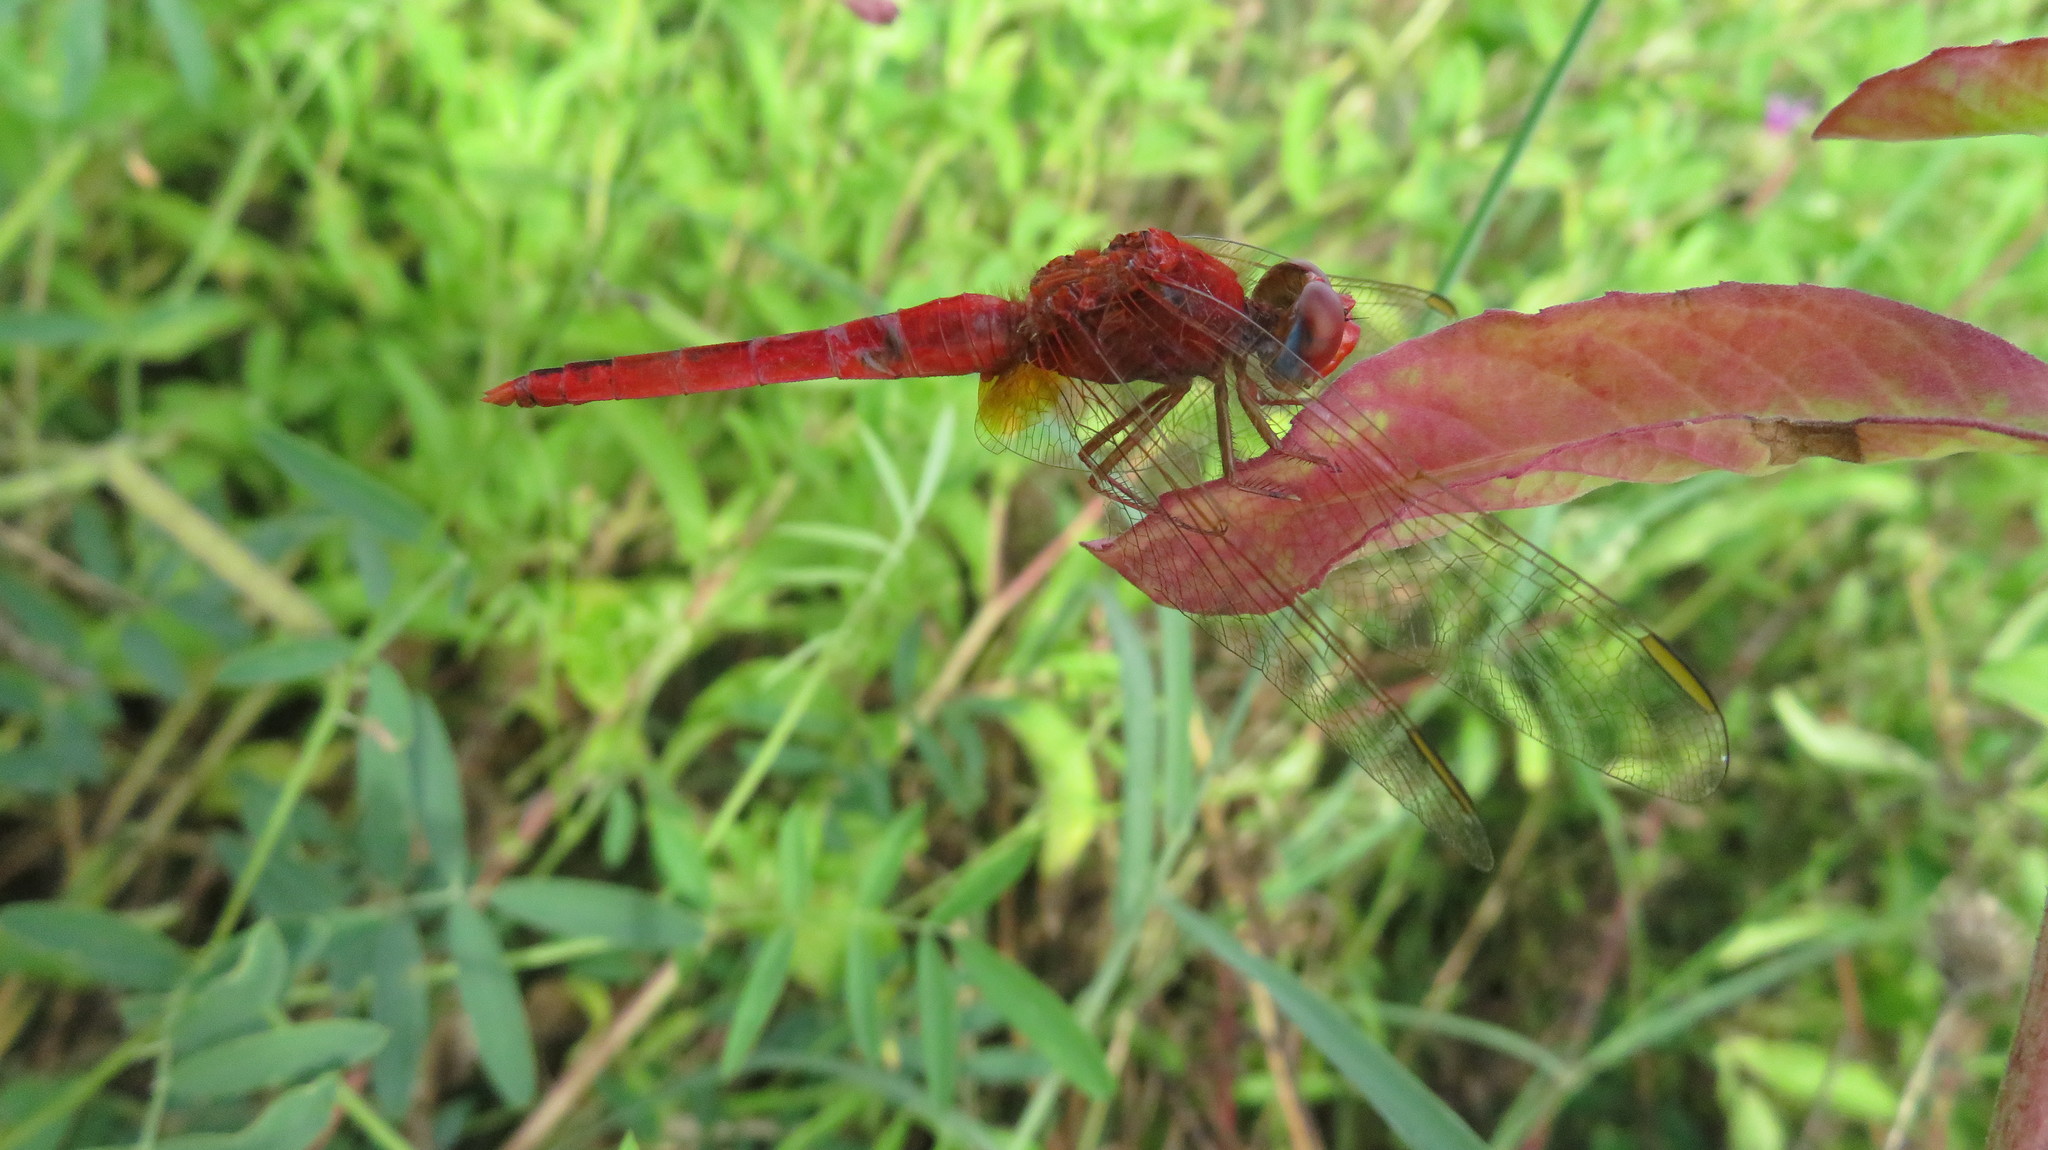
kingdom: Animalia
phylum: Arthropoda
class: Insecta
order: Odonata
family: Libellulidae
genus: Crocothemis
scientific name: Crocothemis erythraea
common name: Scarlet dragonfly
